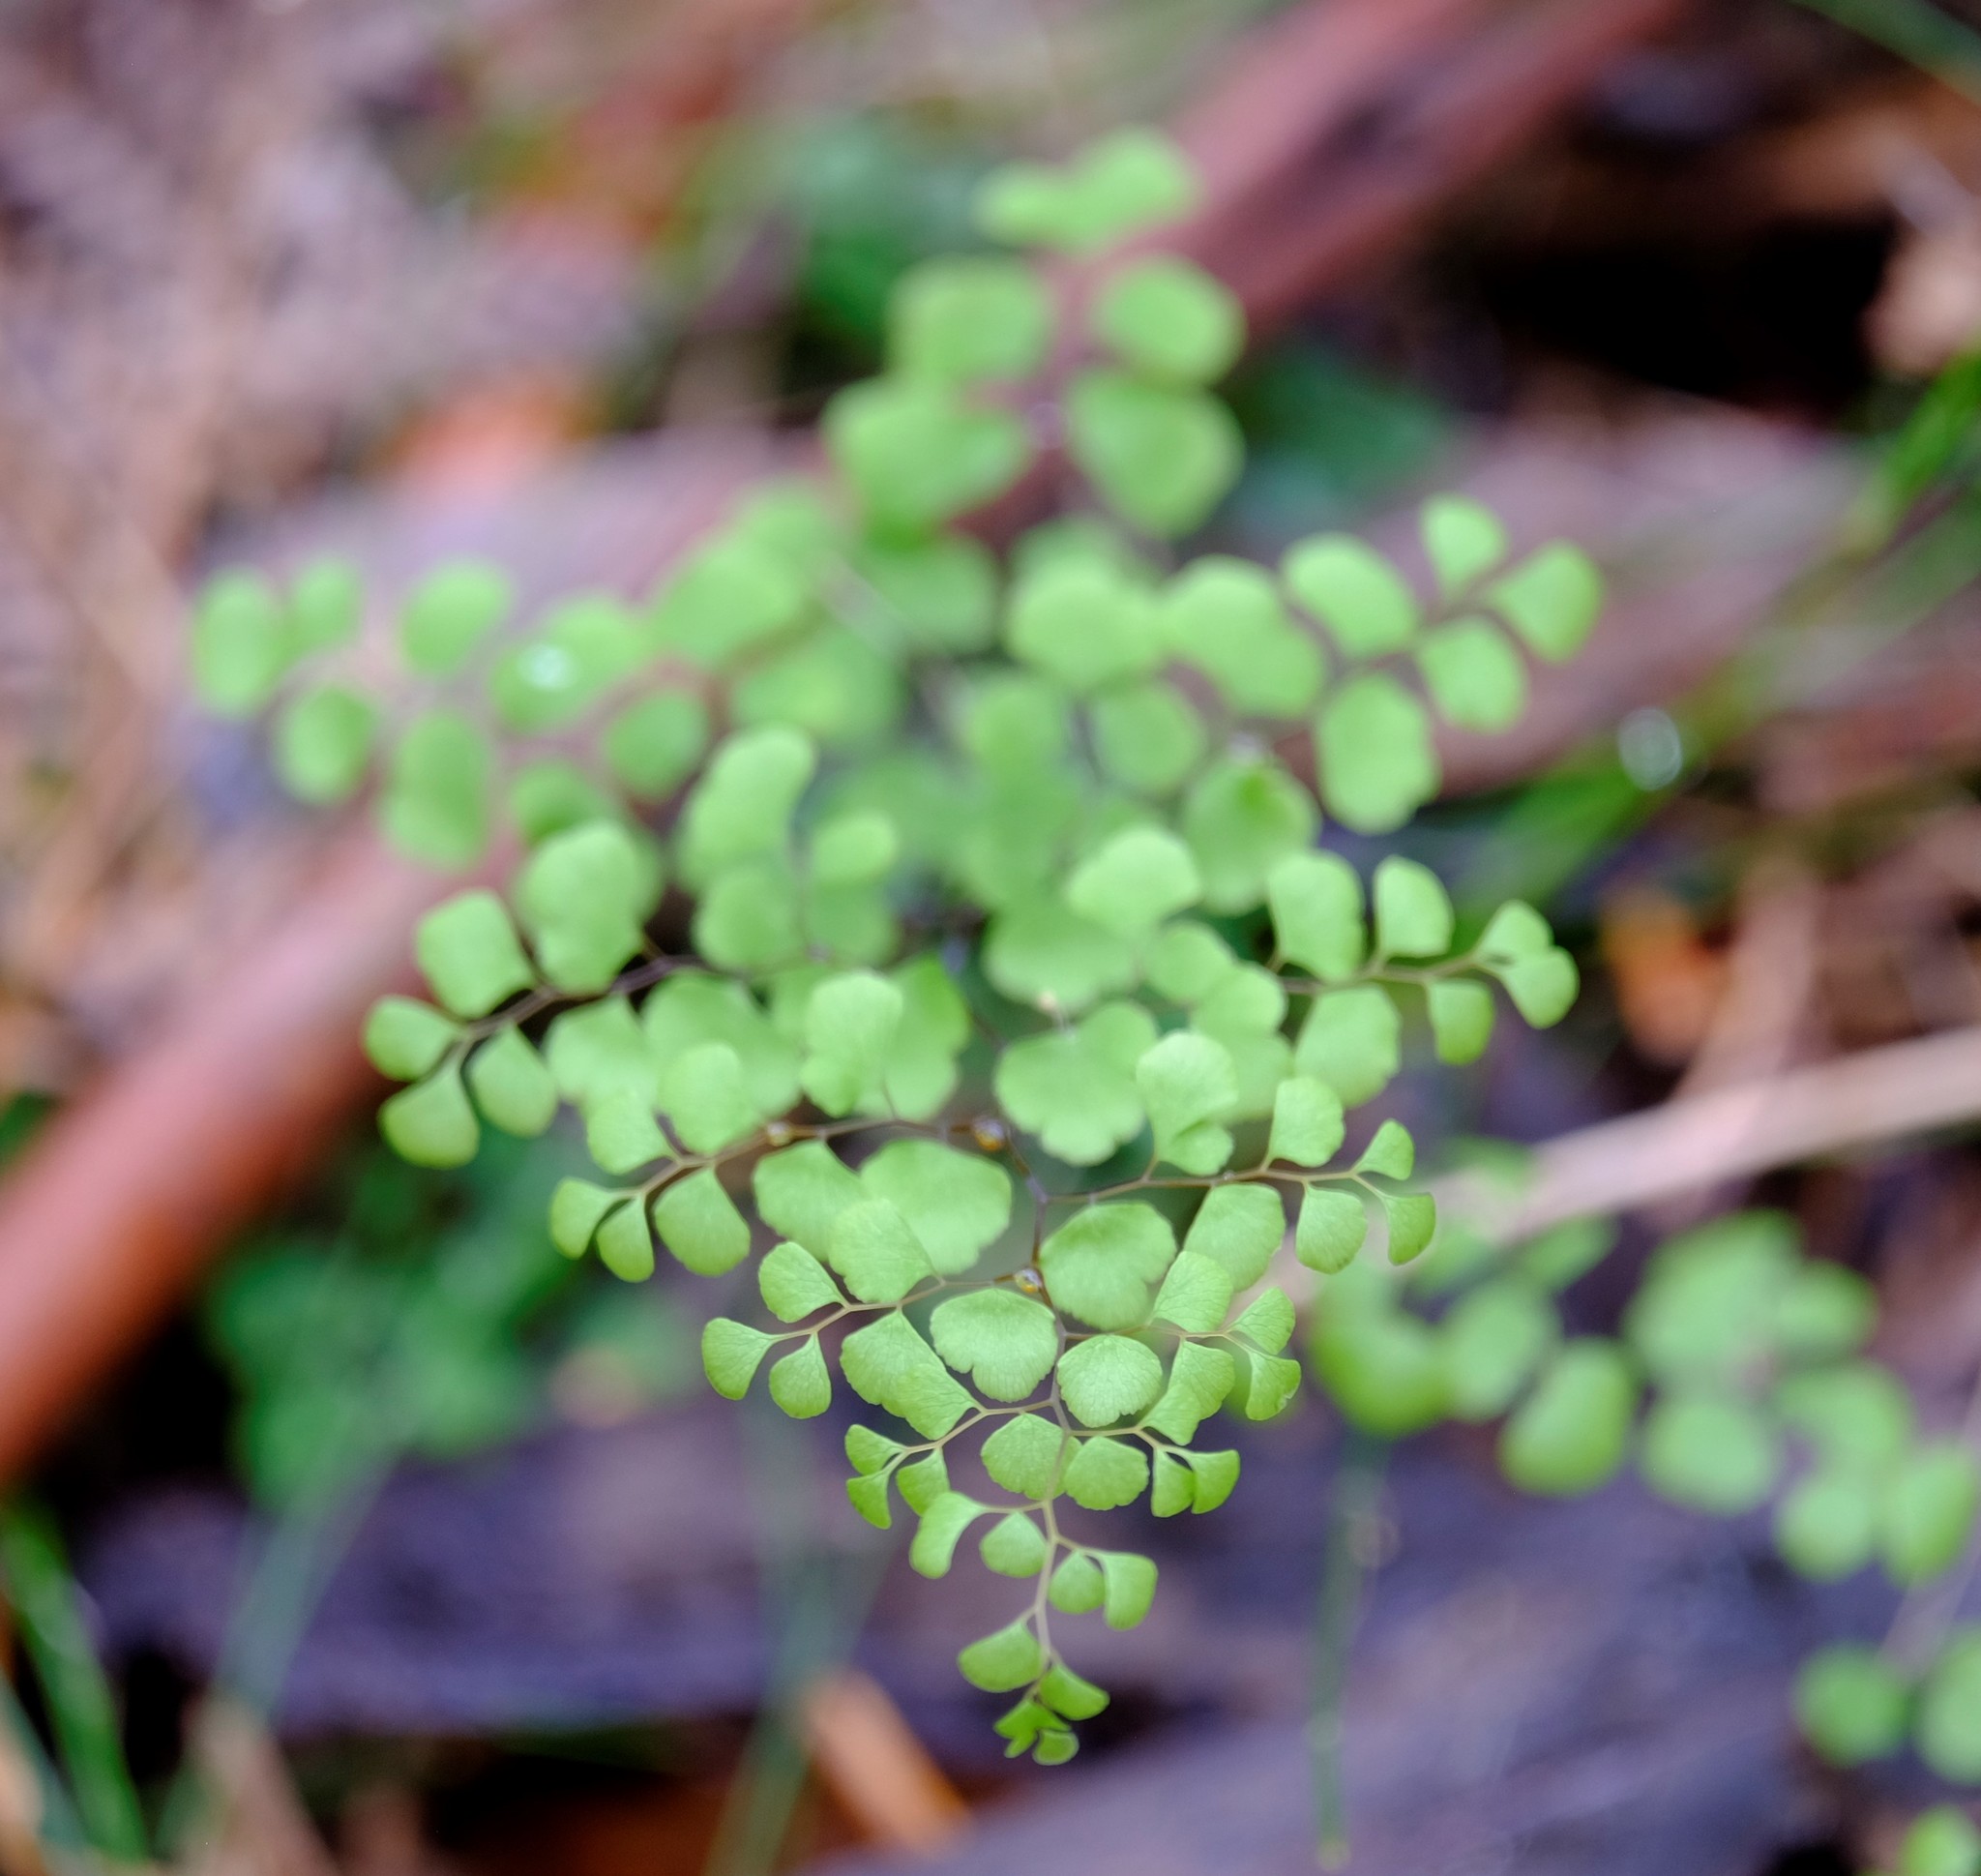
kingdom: Plantae
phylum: Tracheophyta
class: Polypodiopsida
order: Polypodiales
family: Pteridaceae
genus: Adiantum
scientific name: Adiantum aethiopicum
